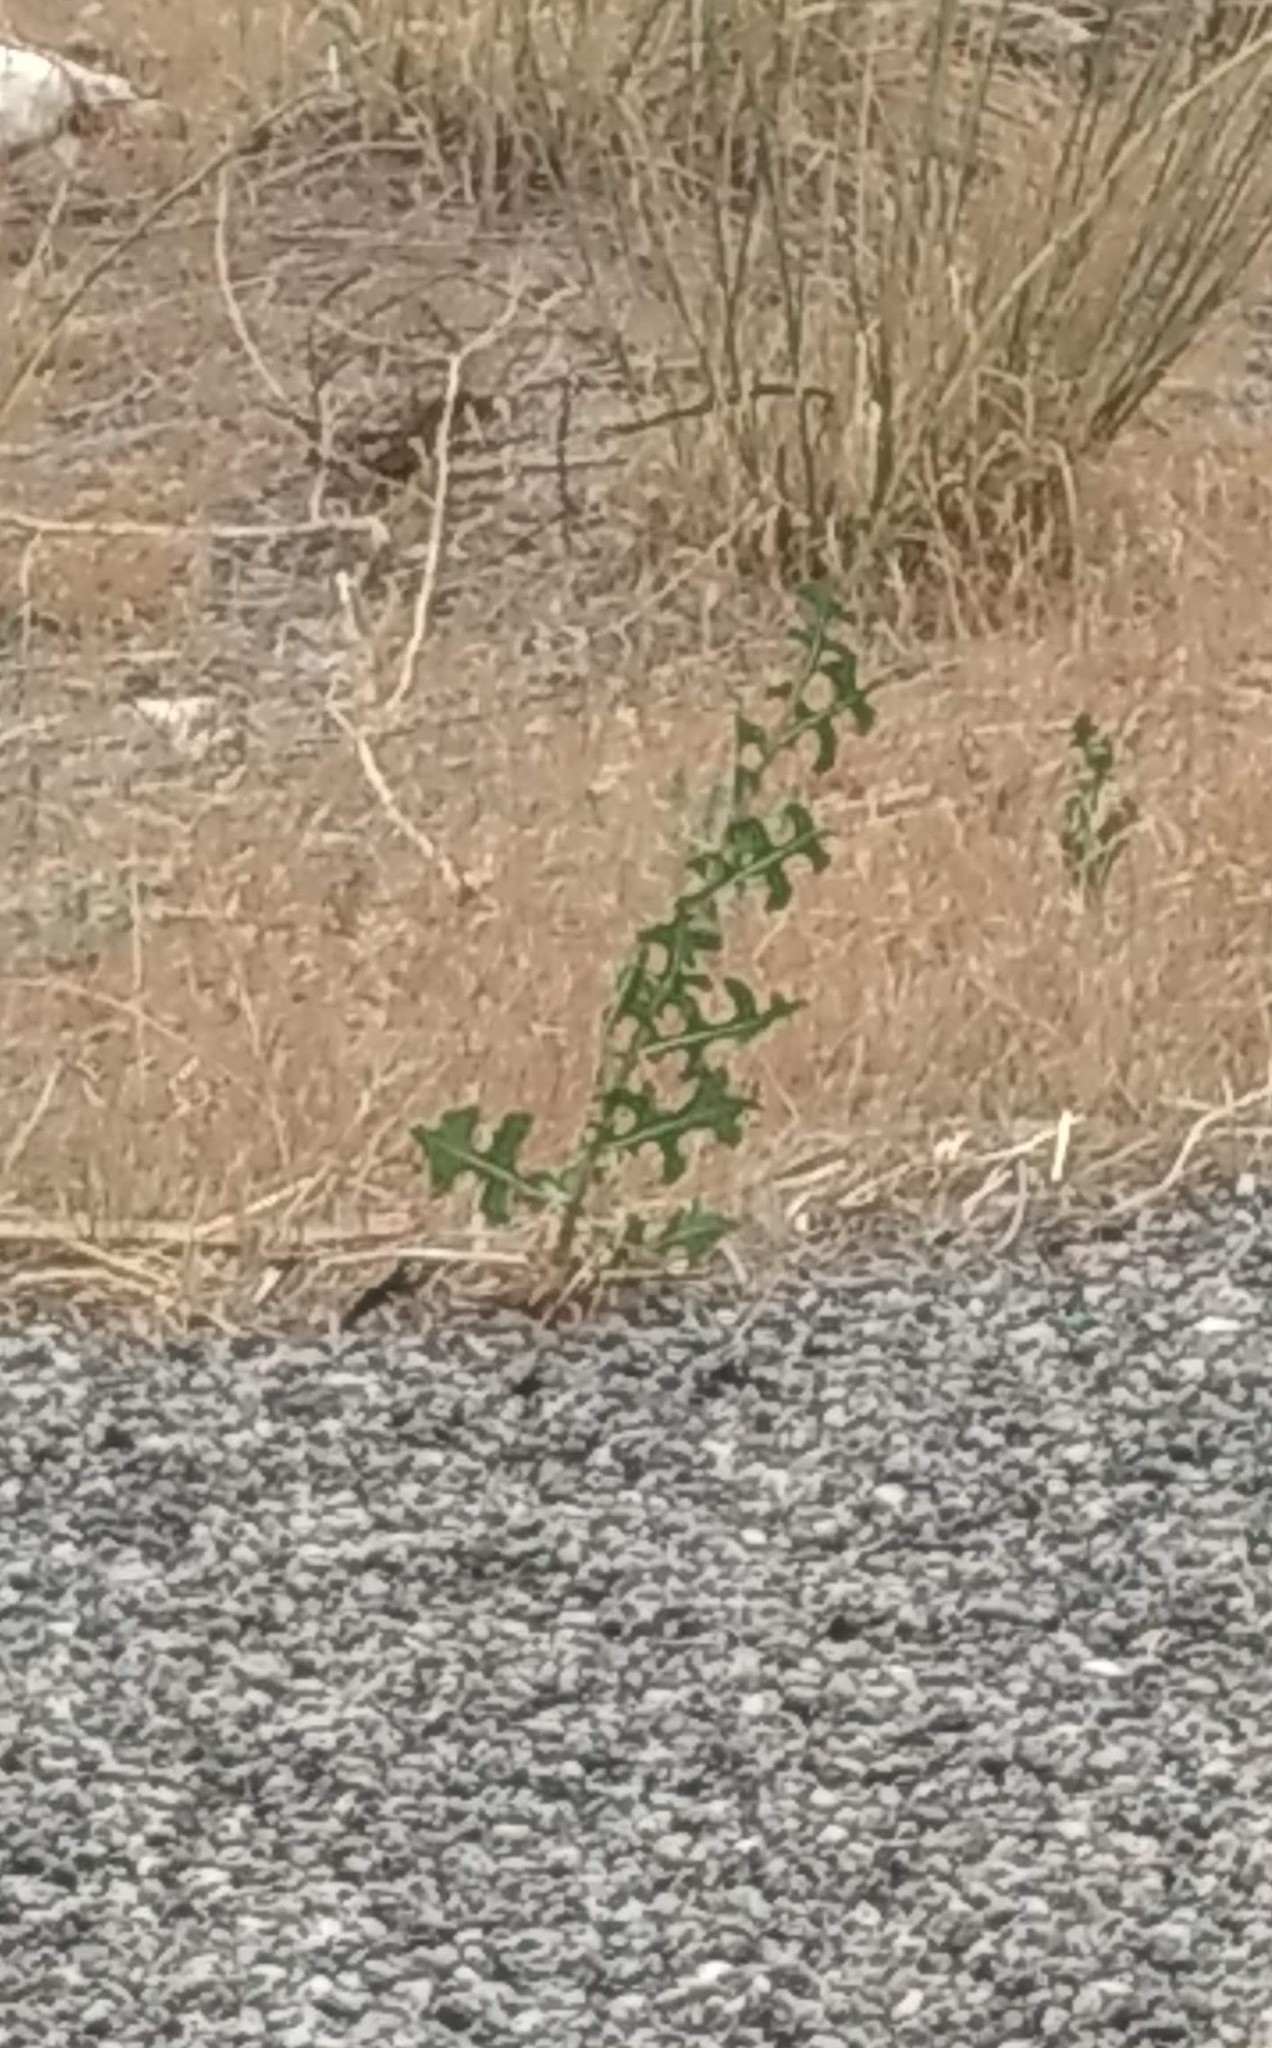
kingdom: Plantae
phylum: Tracheophyta
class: Magnoliopsida
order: Asterales
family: Asteraceae
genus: Lactuca
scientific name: Lactuca serriola
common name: Prickly lettuce
